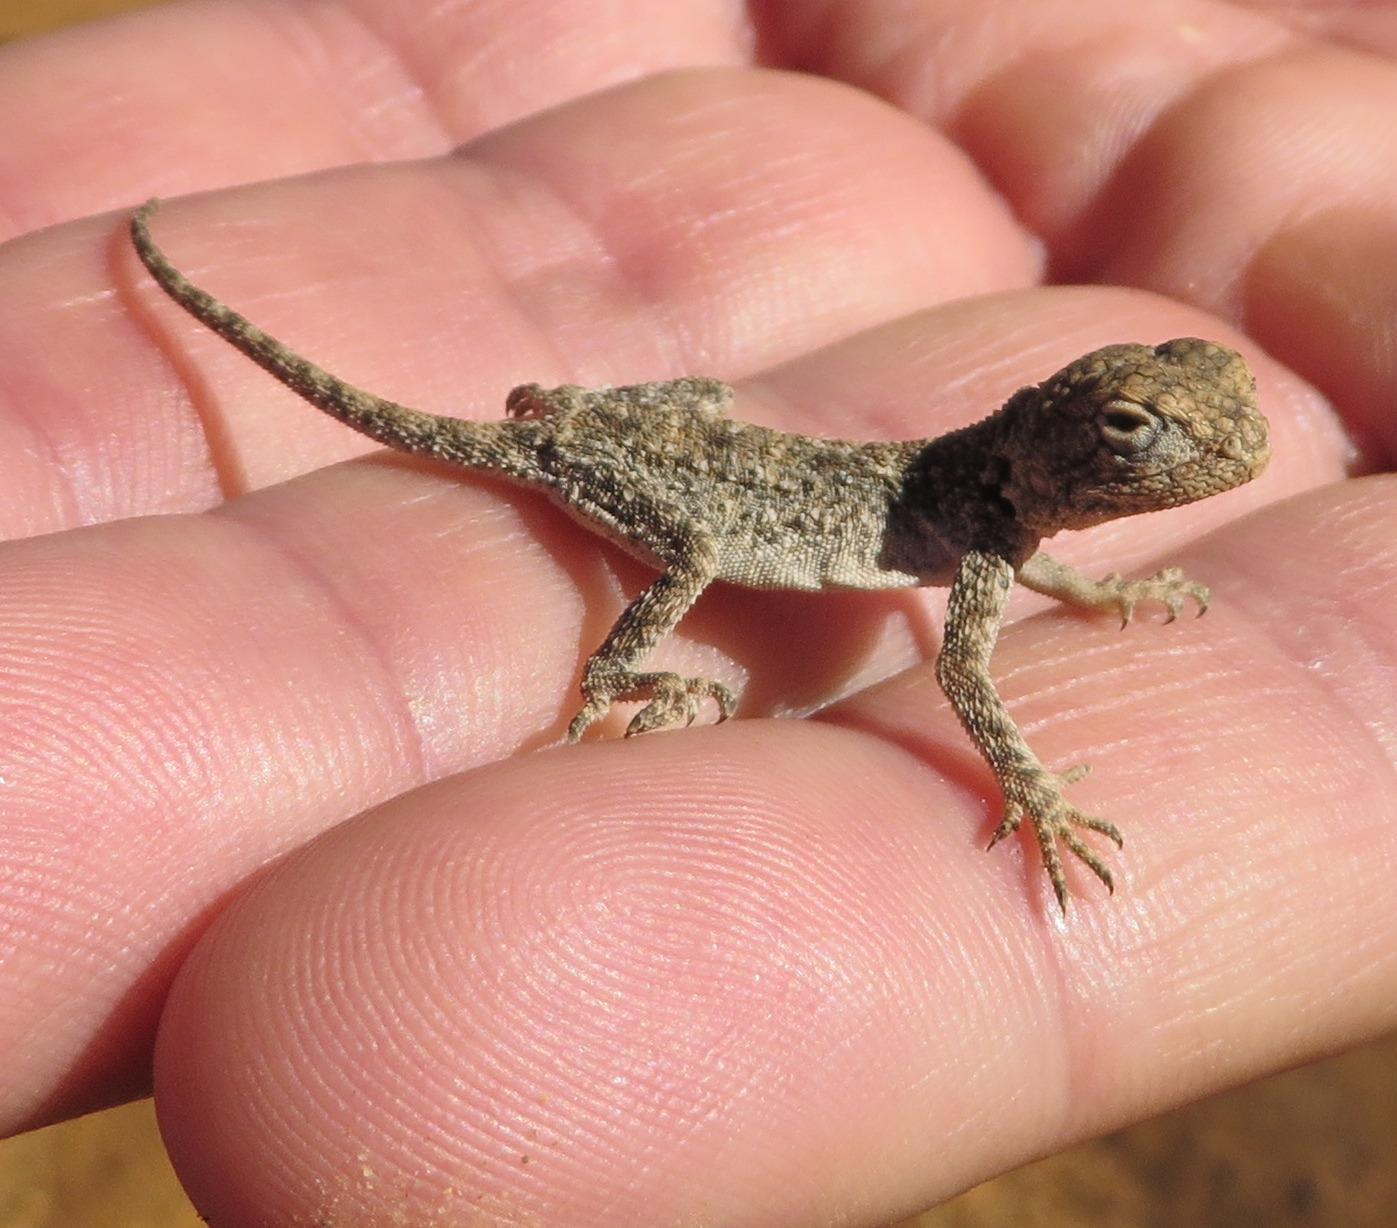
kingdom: Animalia
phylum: Chordata
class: Squamata
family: Agamidae
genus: Agama
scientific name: Agama atra
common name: Southern african rock agama
